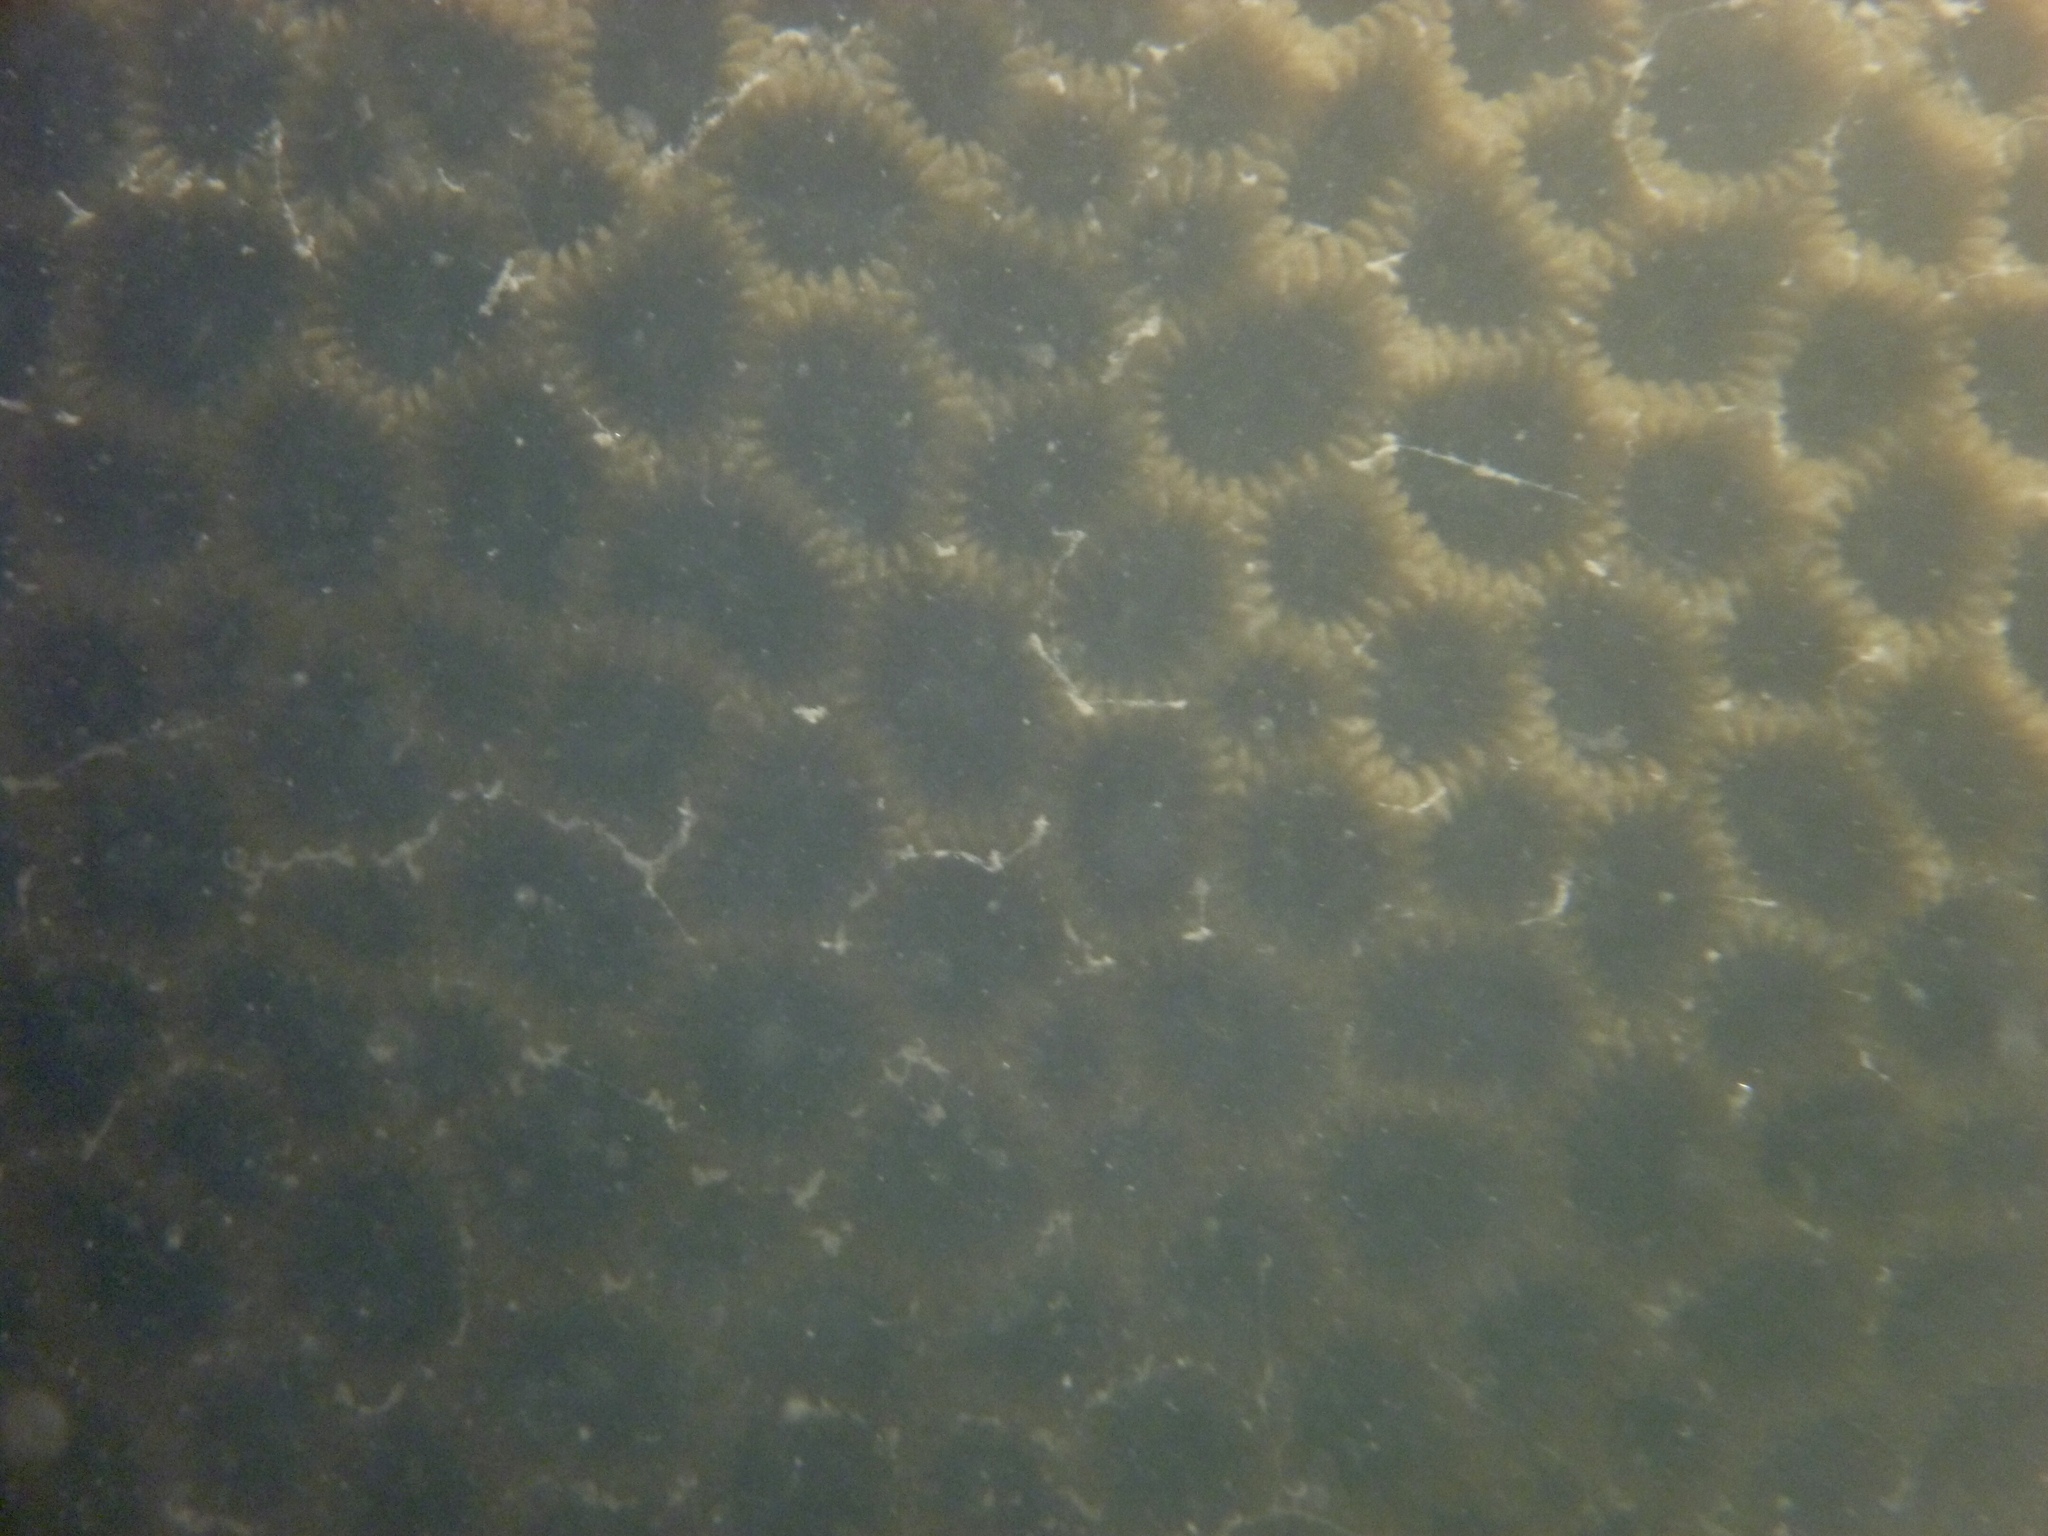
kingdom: Animalia
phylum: Cnidaria
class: Anthozoa
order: Scleractinia
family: Merulinidae
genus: Coelastrea
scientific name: Coelastrea aspera
